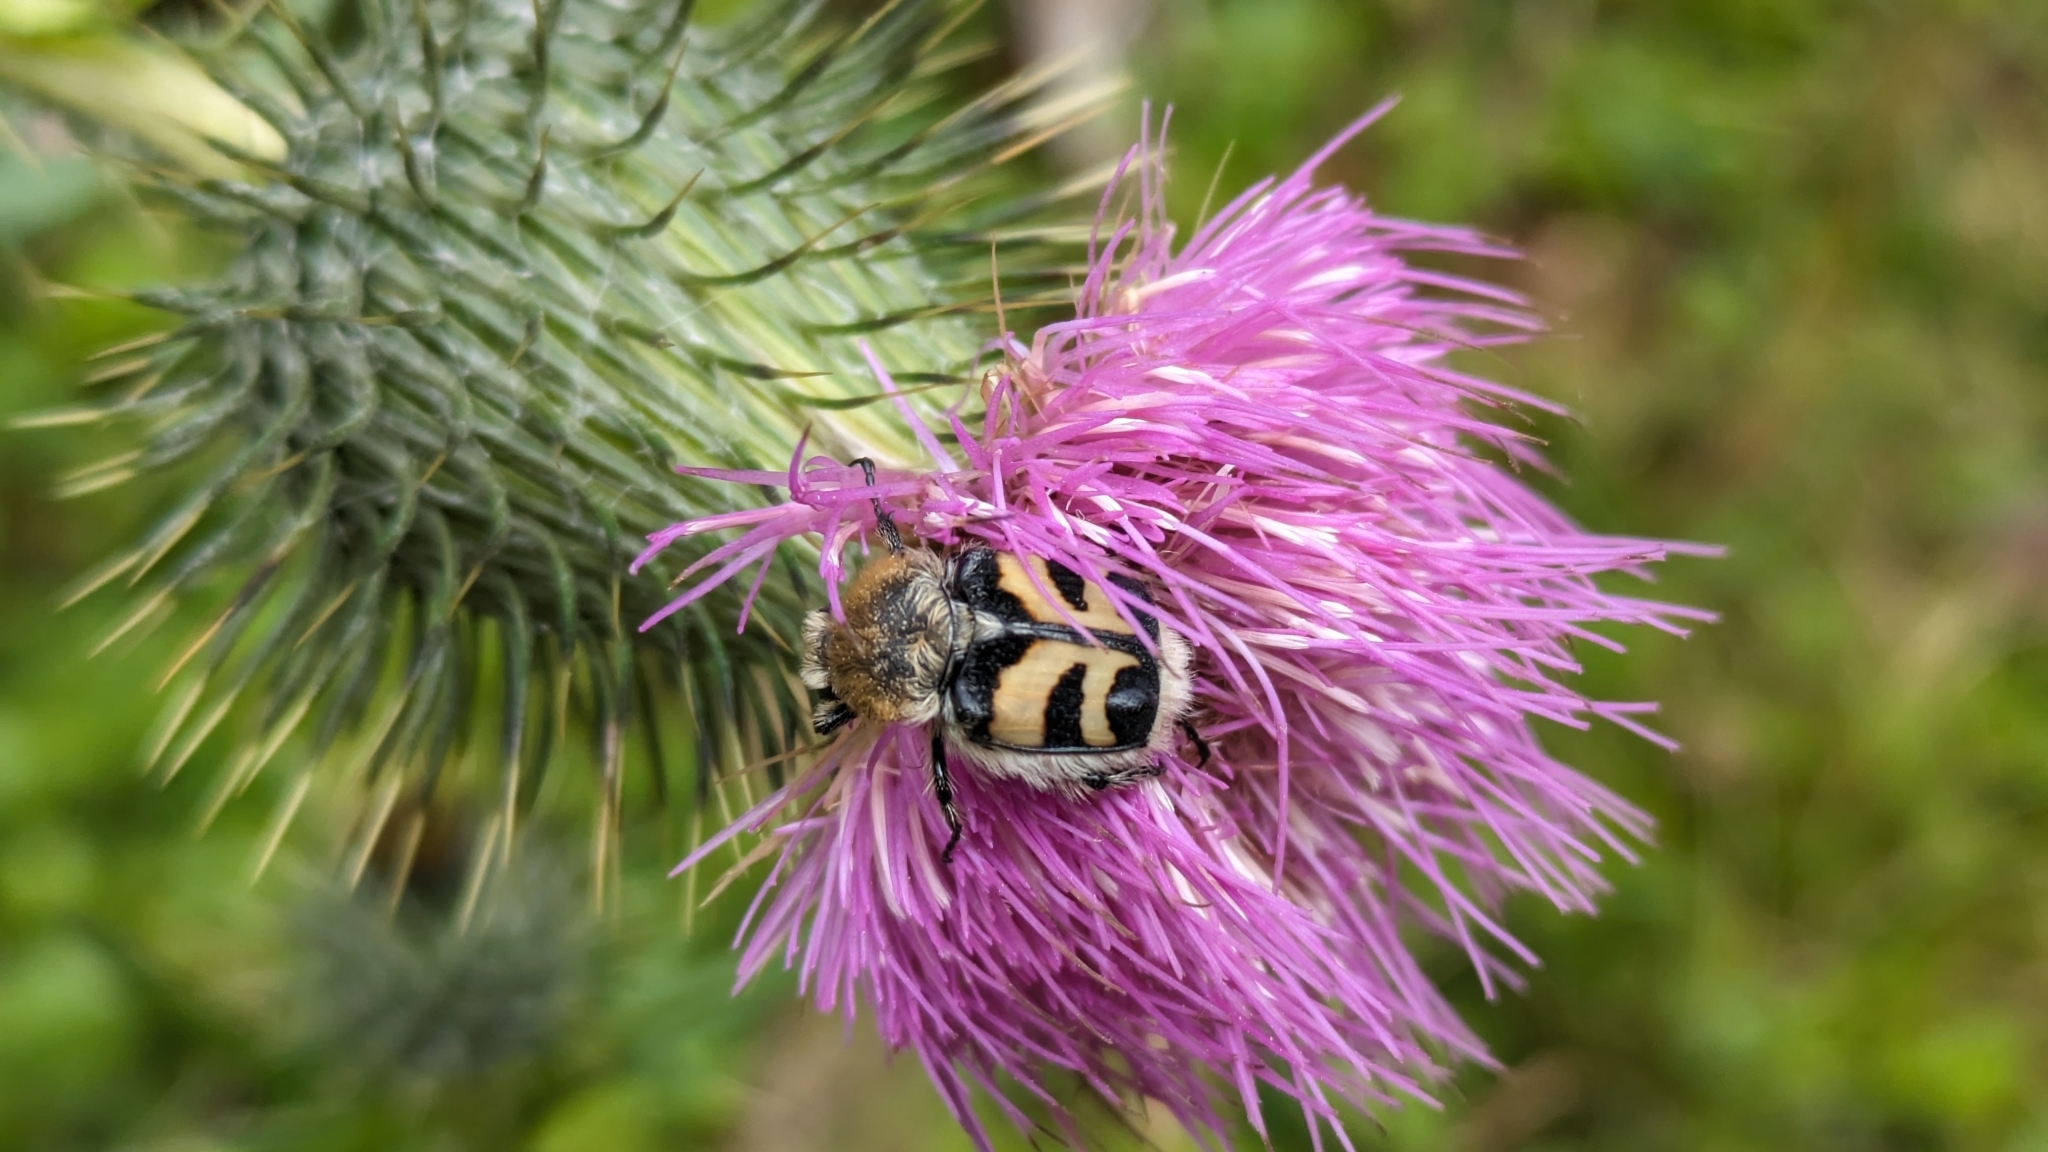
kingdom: Animalia
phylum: Arthropoda
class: Insecta
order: Coleoptera
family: Scarabaeidae
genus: Trichius
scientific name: Trichius fasciatus
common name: Bee beetle
